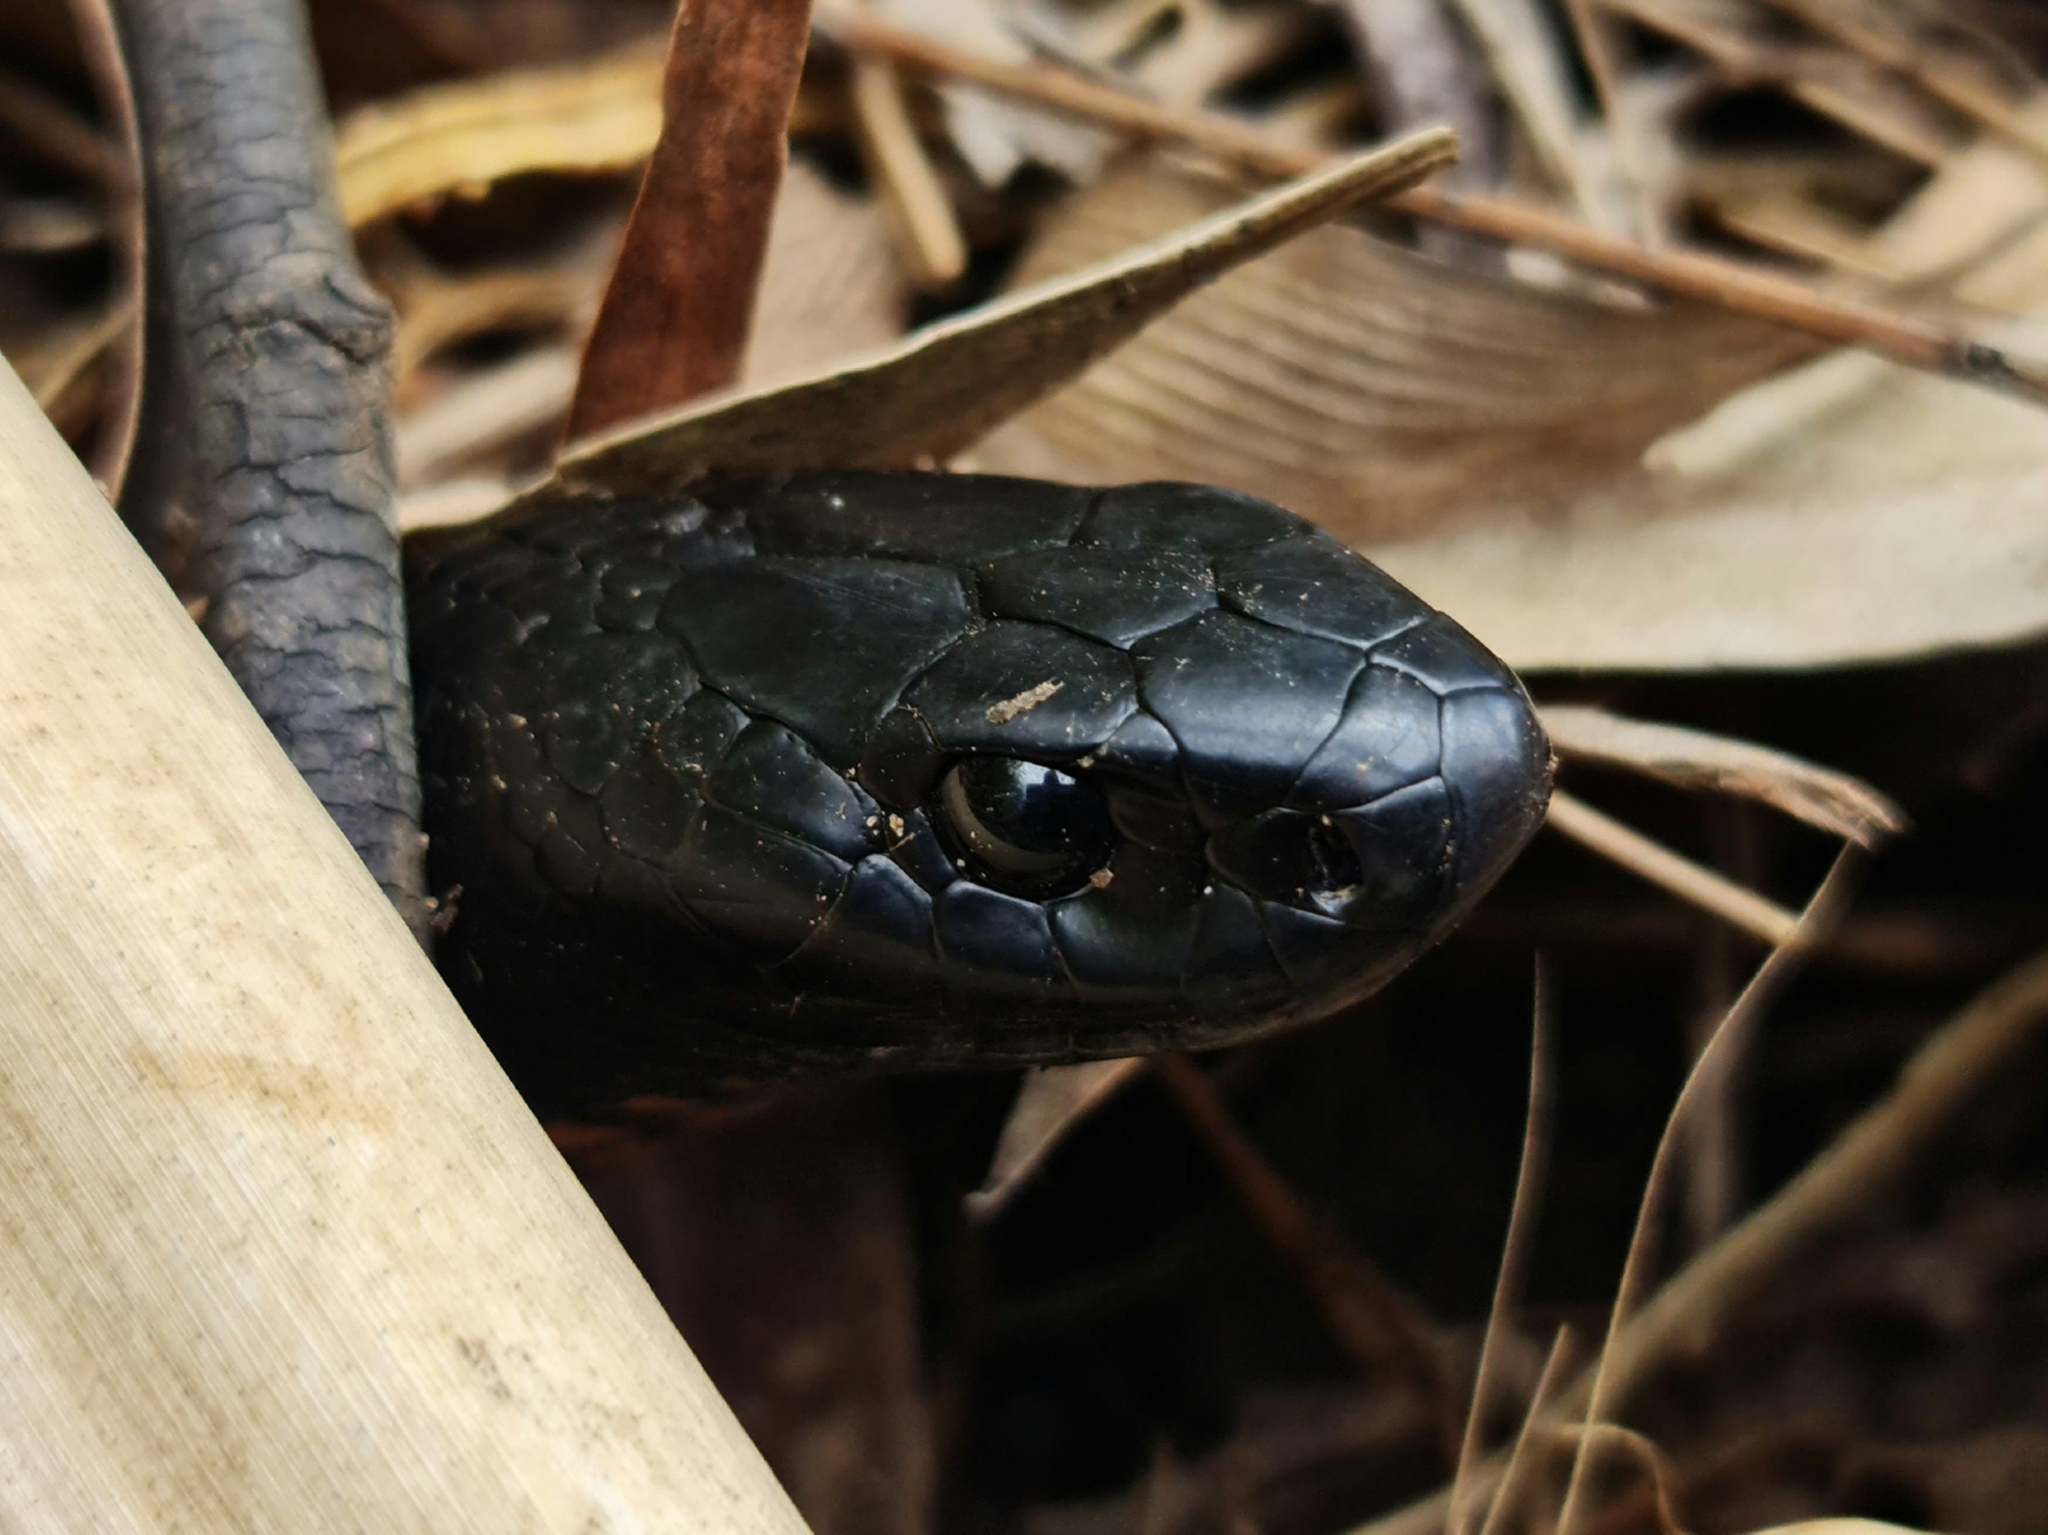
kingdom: Animalia
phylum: Chordata
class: Squamata
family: Elapidae
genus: Pseudechis
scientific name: Pseudechis porphyriacus
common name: Australian black snake
